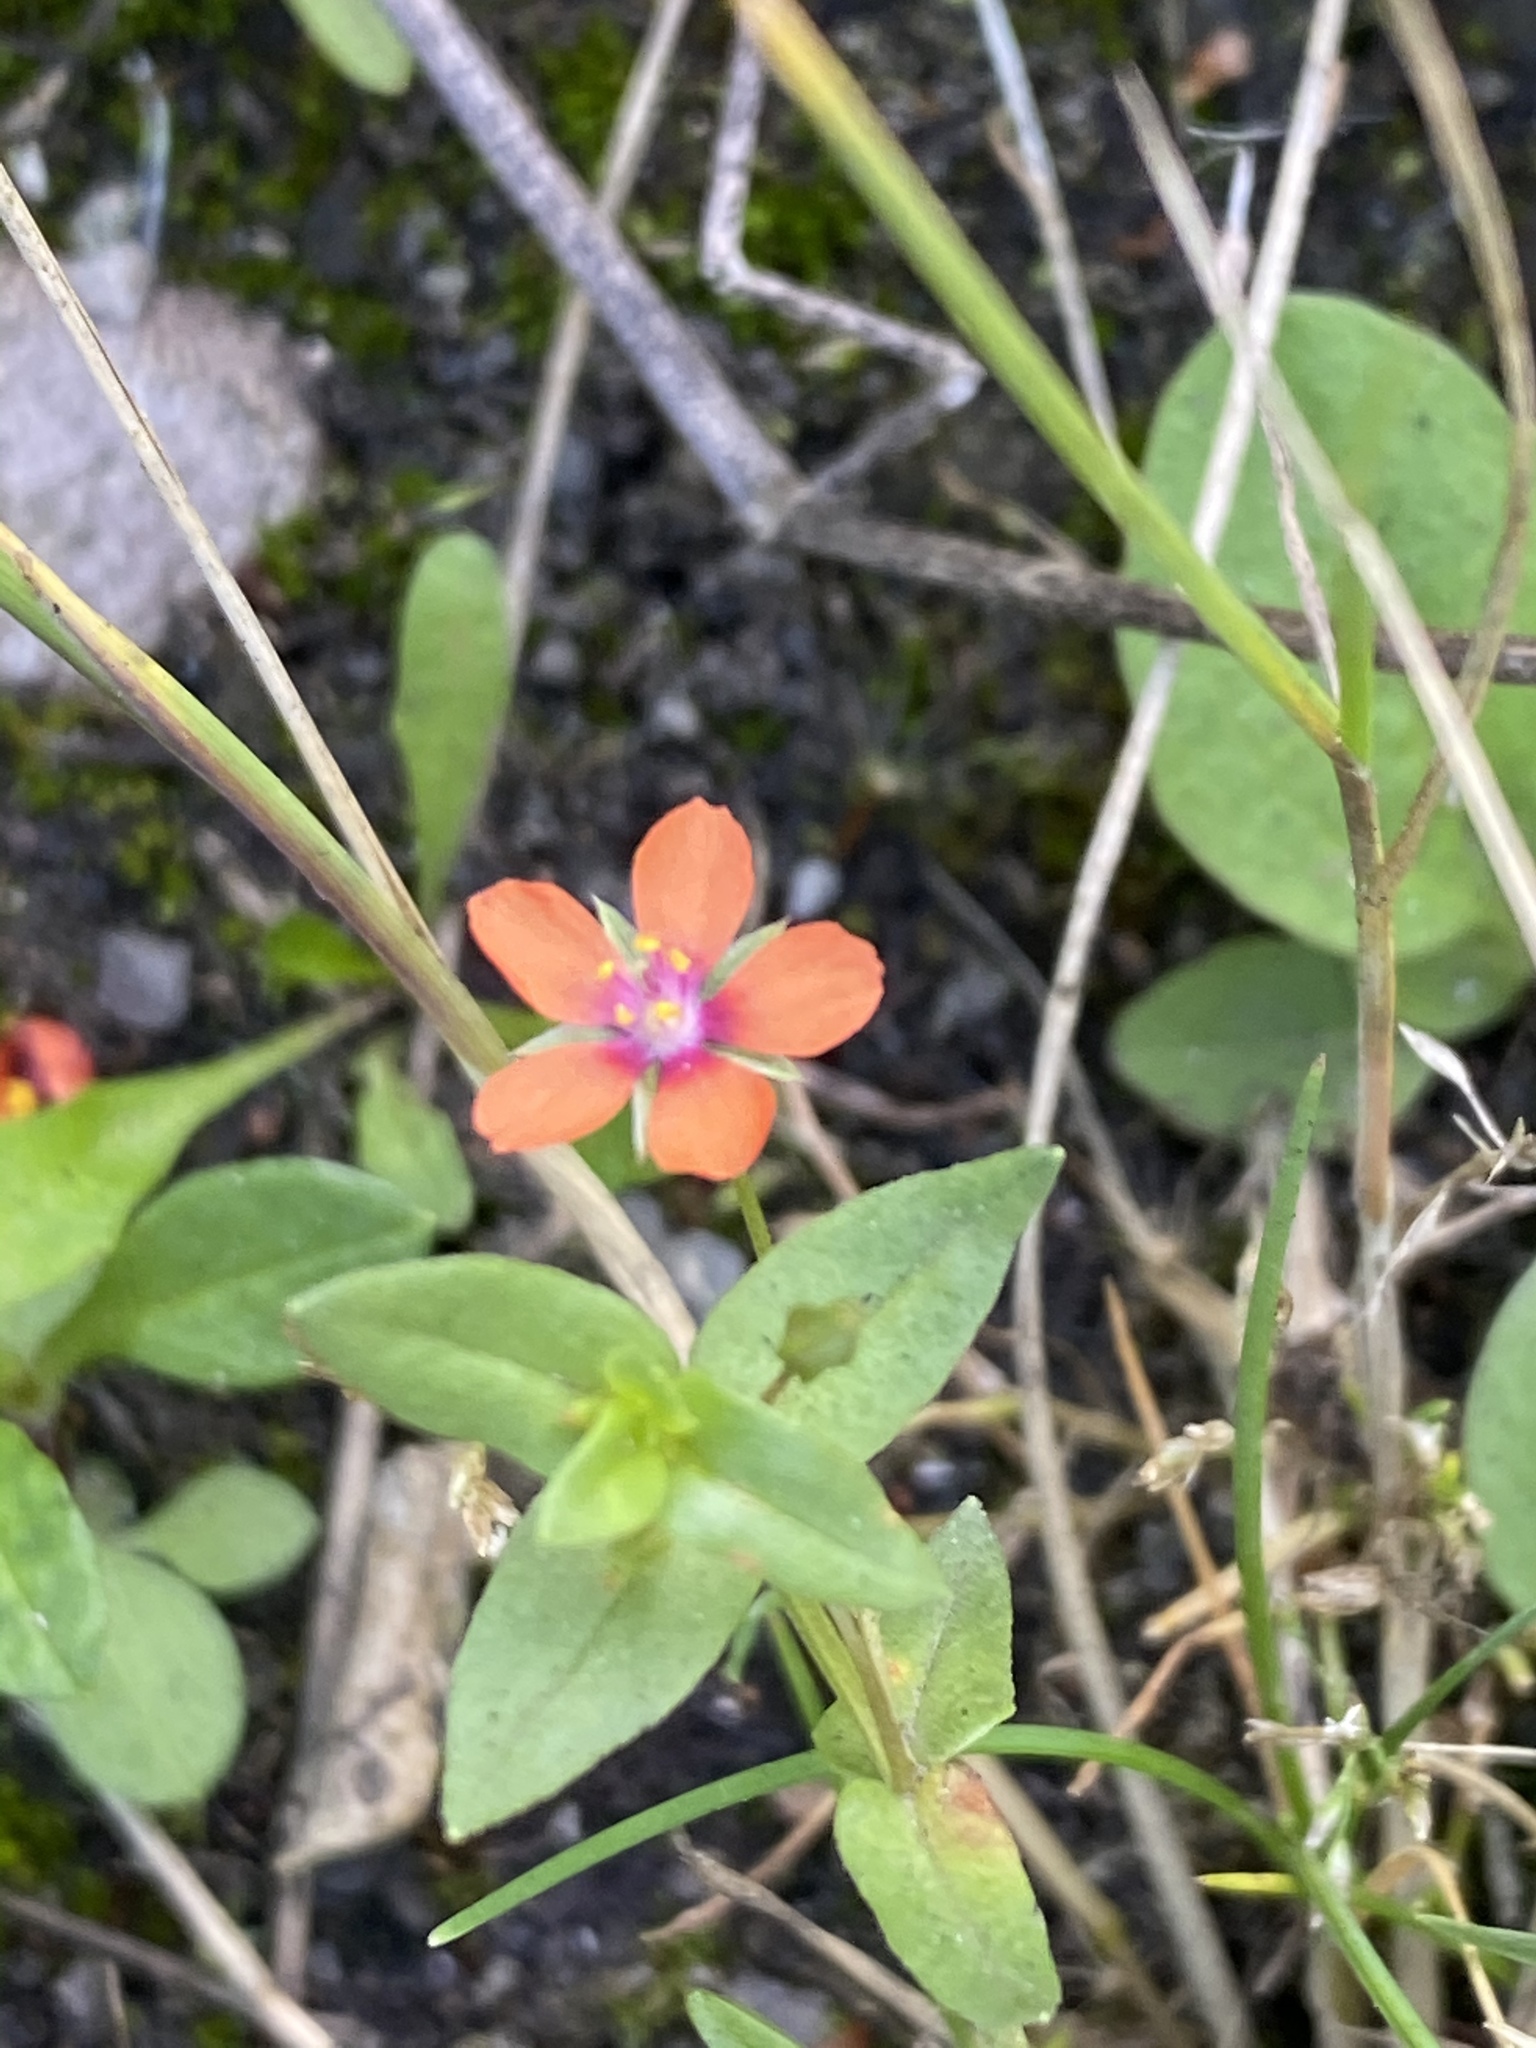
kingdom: Plantae
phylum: Tracheophyta
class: Magnoliopsida
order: Ericales
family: Primulaceae
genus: Lysimachia
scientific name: Lysimachia arvensis
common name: Scarlet pimpernel
